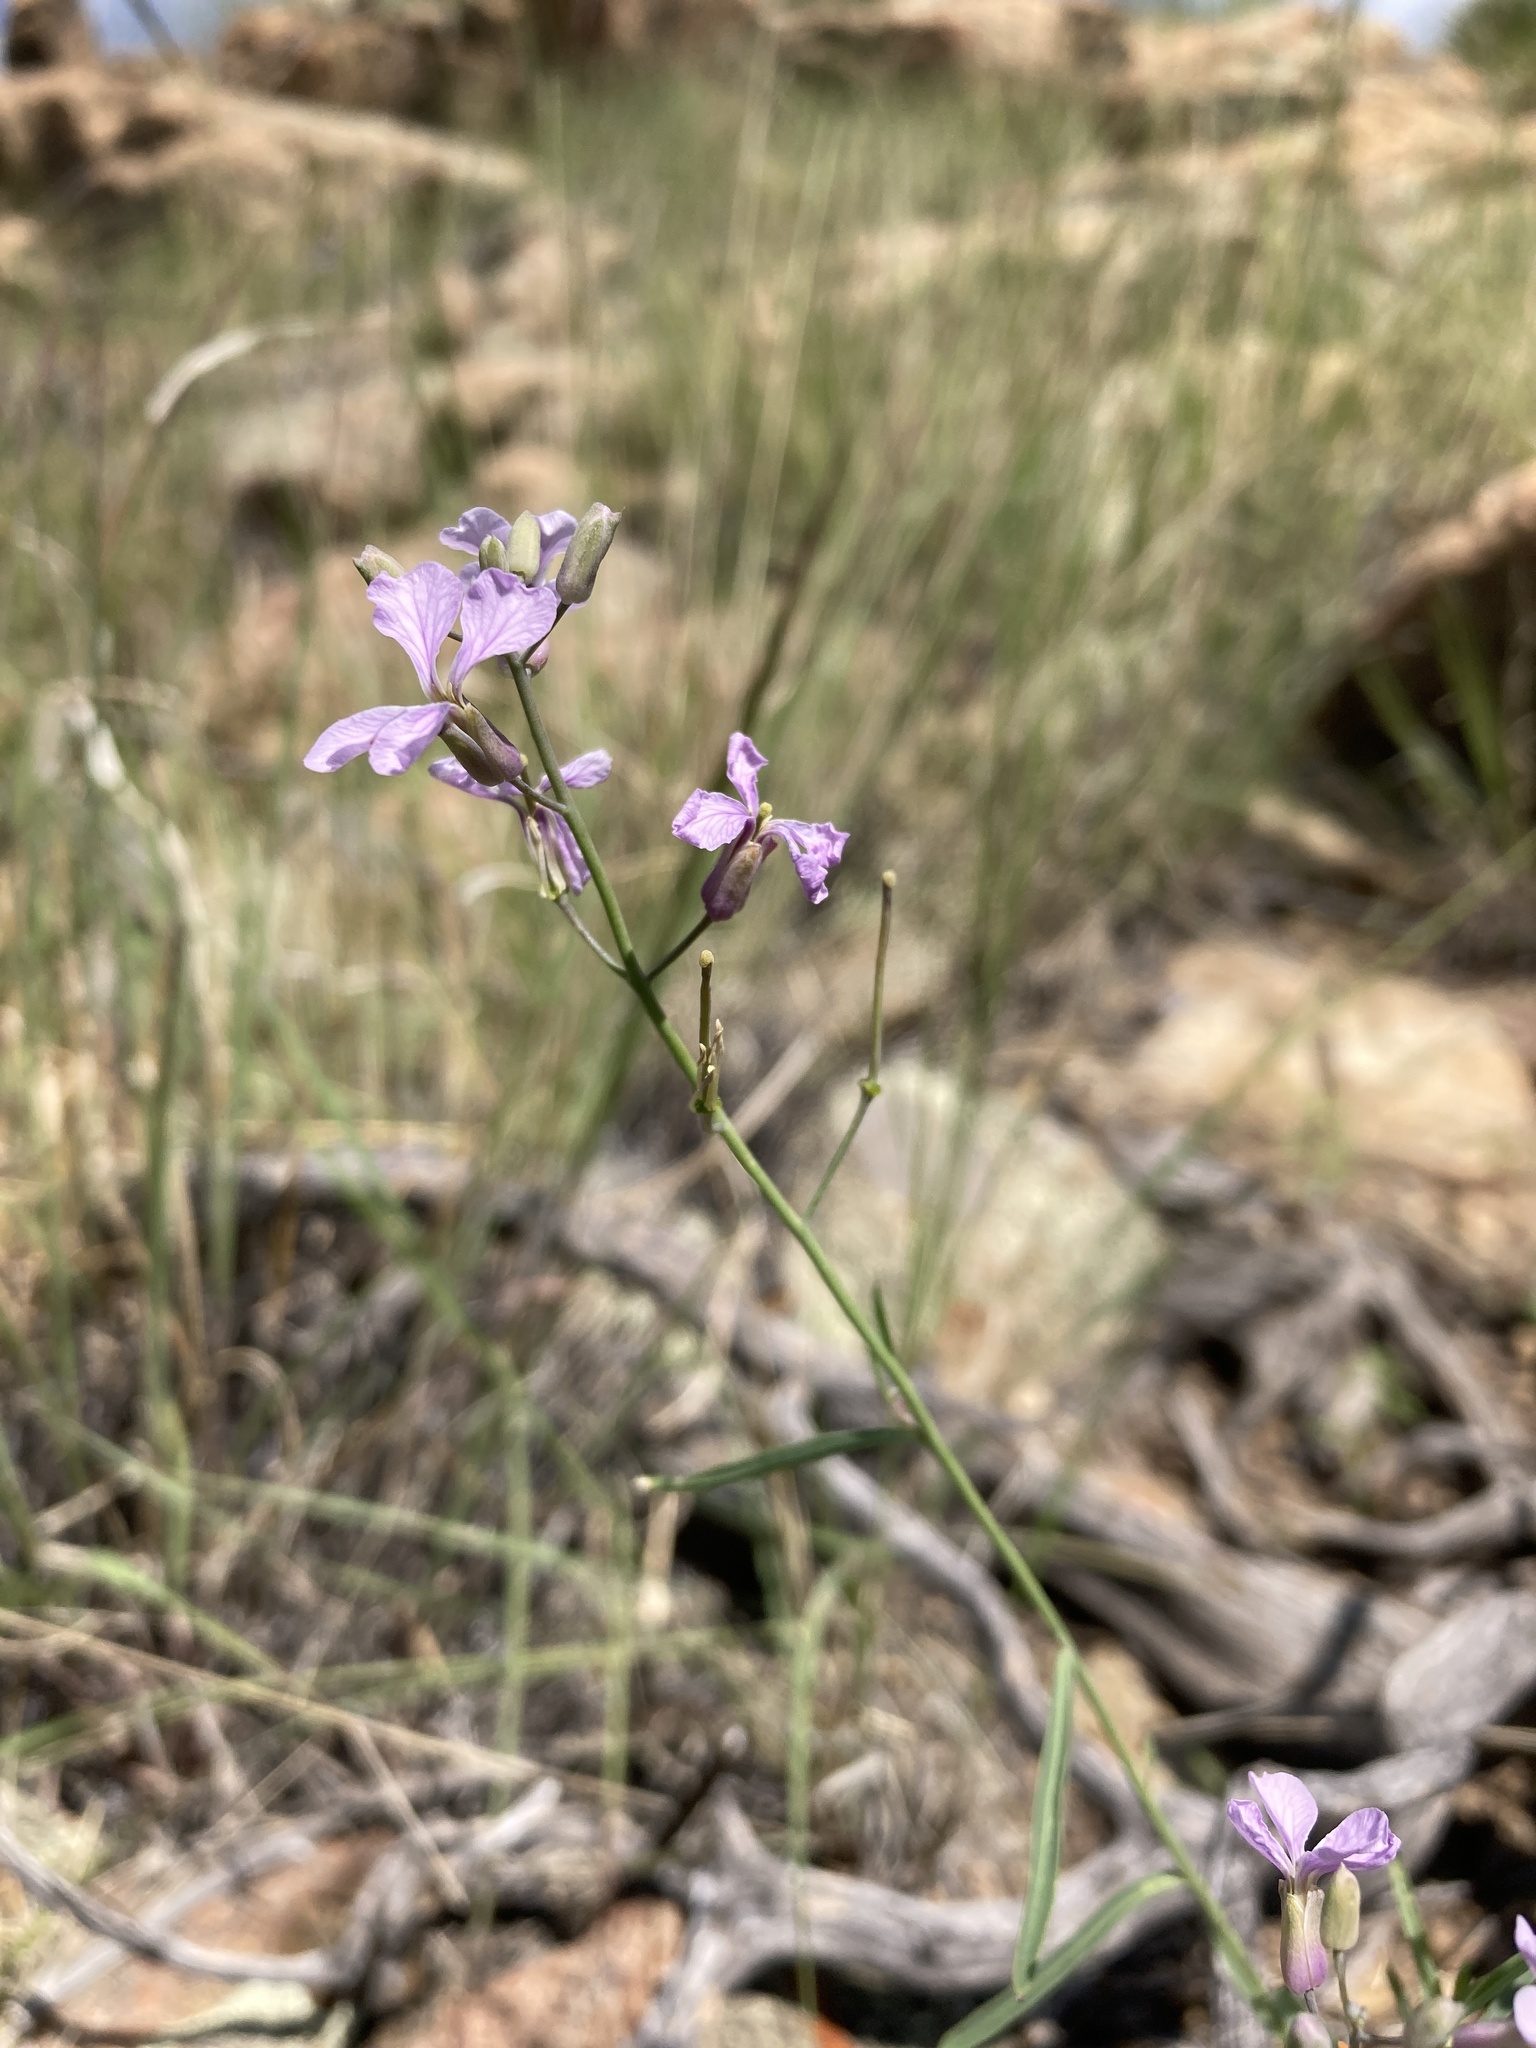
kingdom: Plantae
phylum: Tracheophyta
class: Magnoliopsida
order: Brassicales
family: Brassicaceae
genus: Hesperidanthus
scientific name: Hesperidanthus linearifolius
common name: Slim-leaf plains mustard
